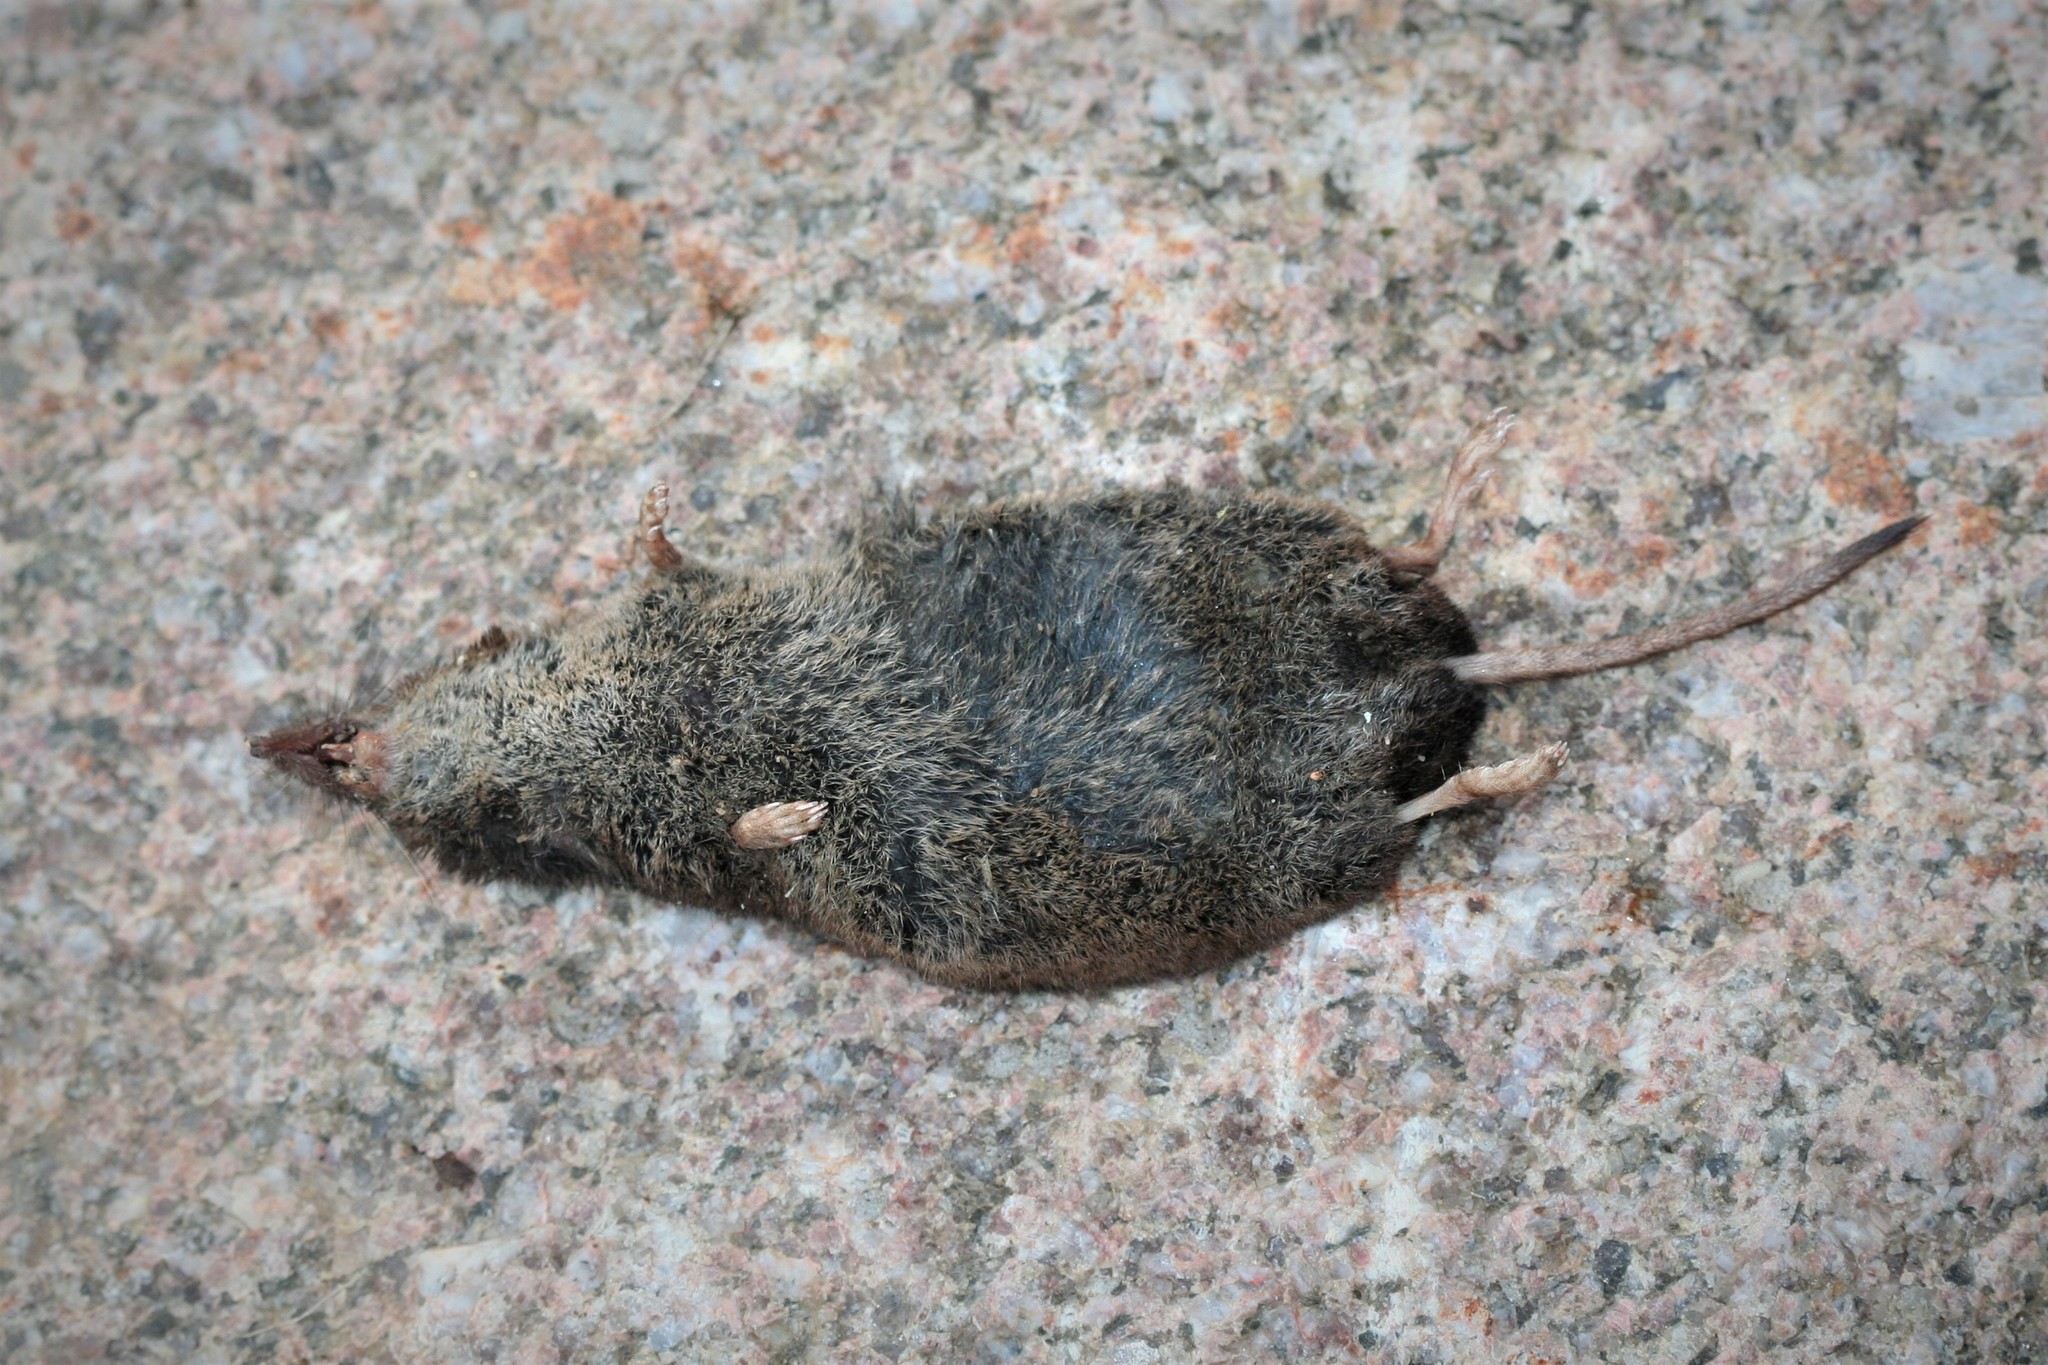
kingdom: Animalia
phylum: Chordata
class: Mammalia
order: Soricomorpha
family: Soricidae
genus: Sorex
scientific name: Sorex araneus
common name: Common shrew
